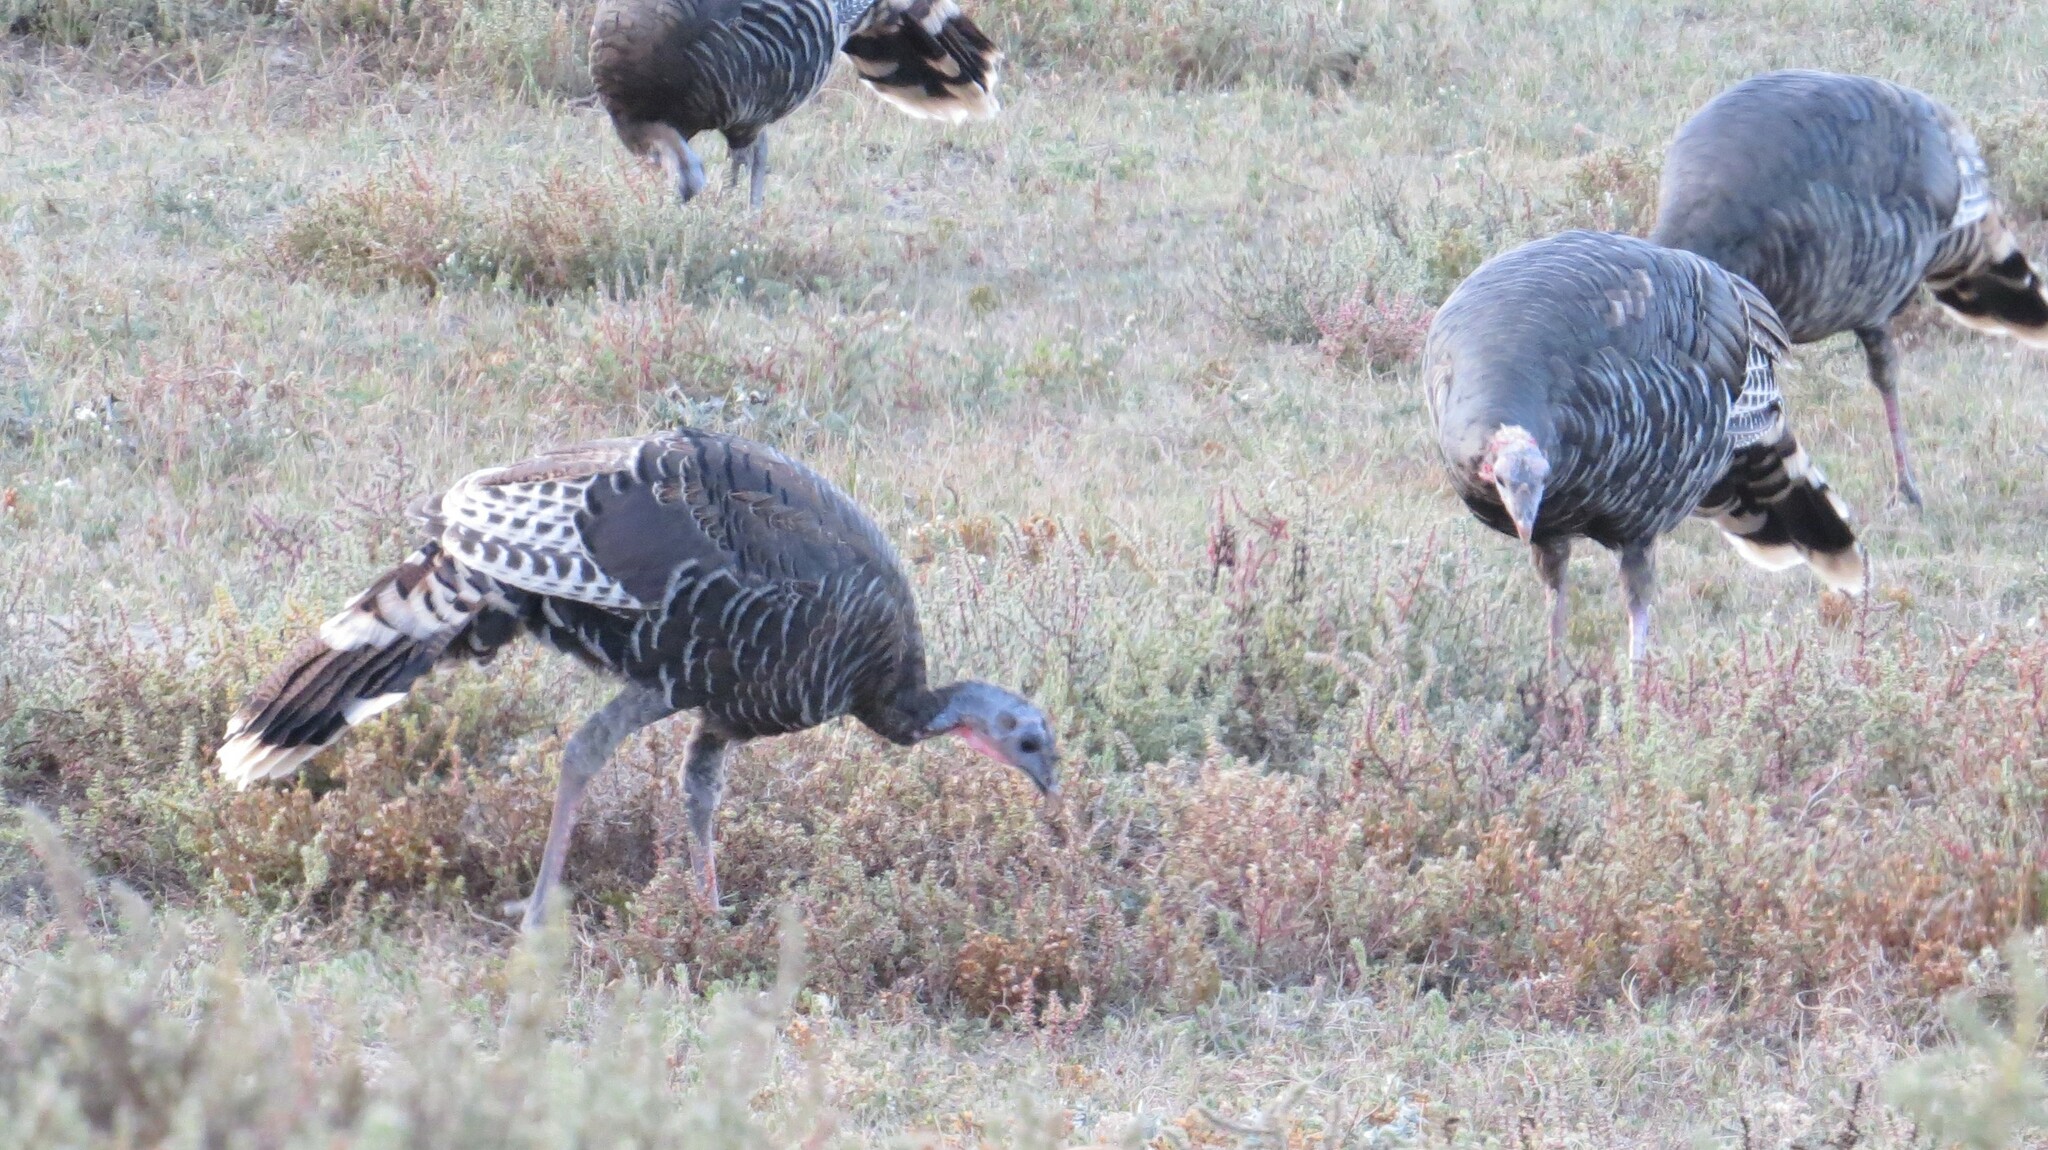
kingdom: Animalia
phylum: Chordata
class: Aves
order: Galliformes
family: Phasianidae
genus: Meleagris
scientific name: Meleagris gallopavo
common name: Wild turkey
